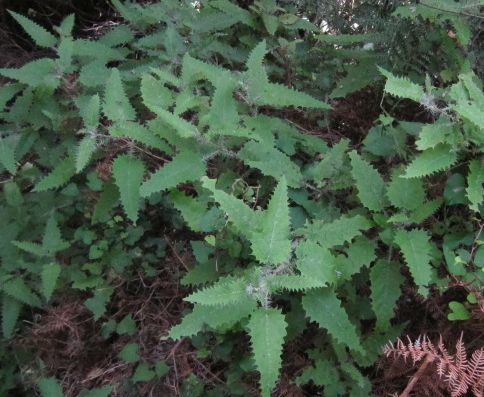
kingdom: Plantae
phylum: Tracheophyta
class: Magnoliopsida
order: Rosales
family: Urticaceae
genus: Urtica
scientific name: Urtica ferox
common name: Tree nettle
